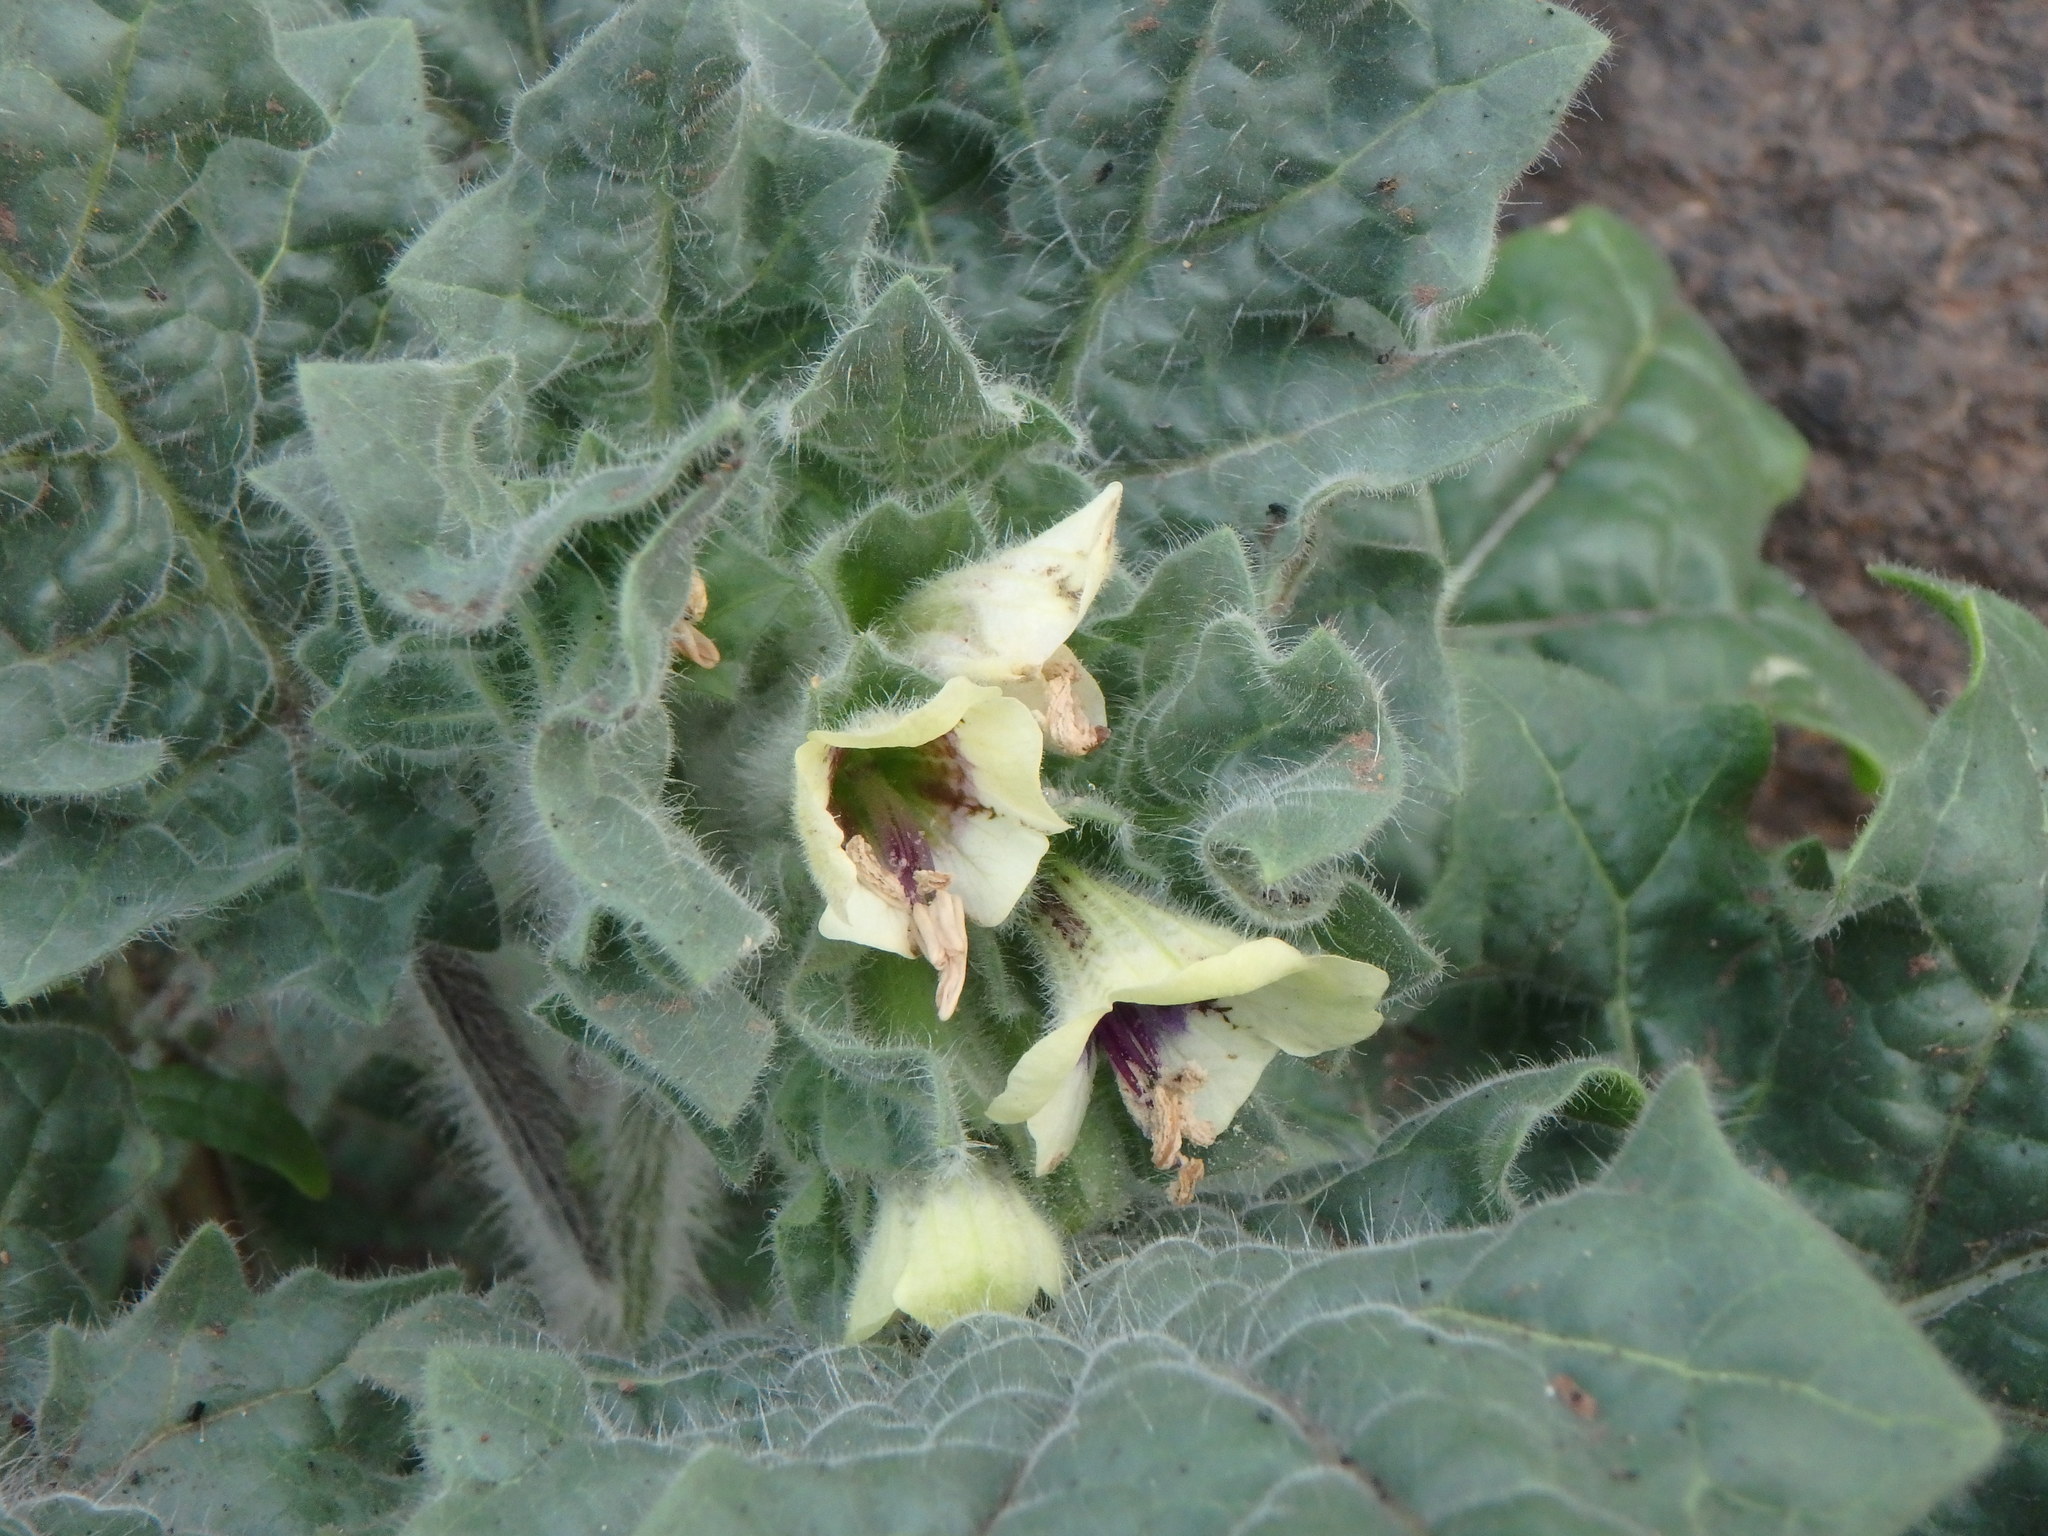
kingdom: Plantae
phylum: Tracheophyta
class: Magnoliopsida
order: Solanales
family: Solanaceae
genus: Hyoscyamus
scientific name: Hyoscyamus albus
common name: White henbane
